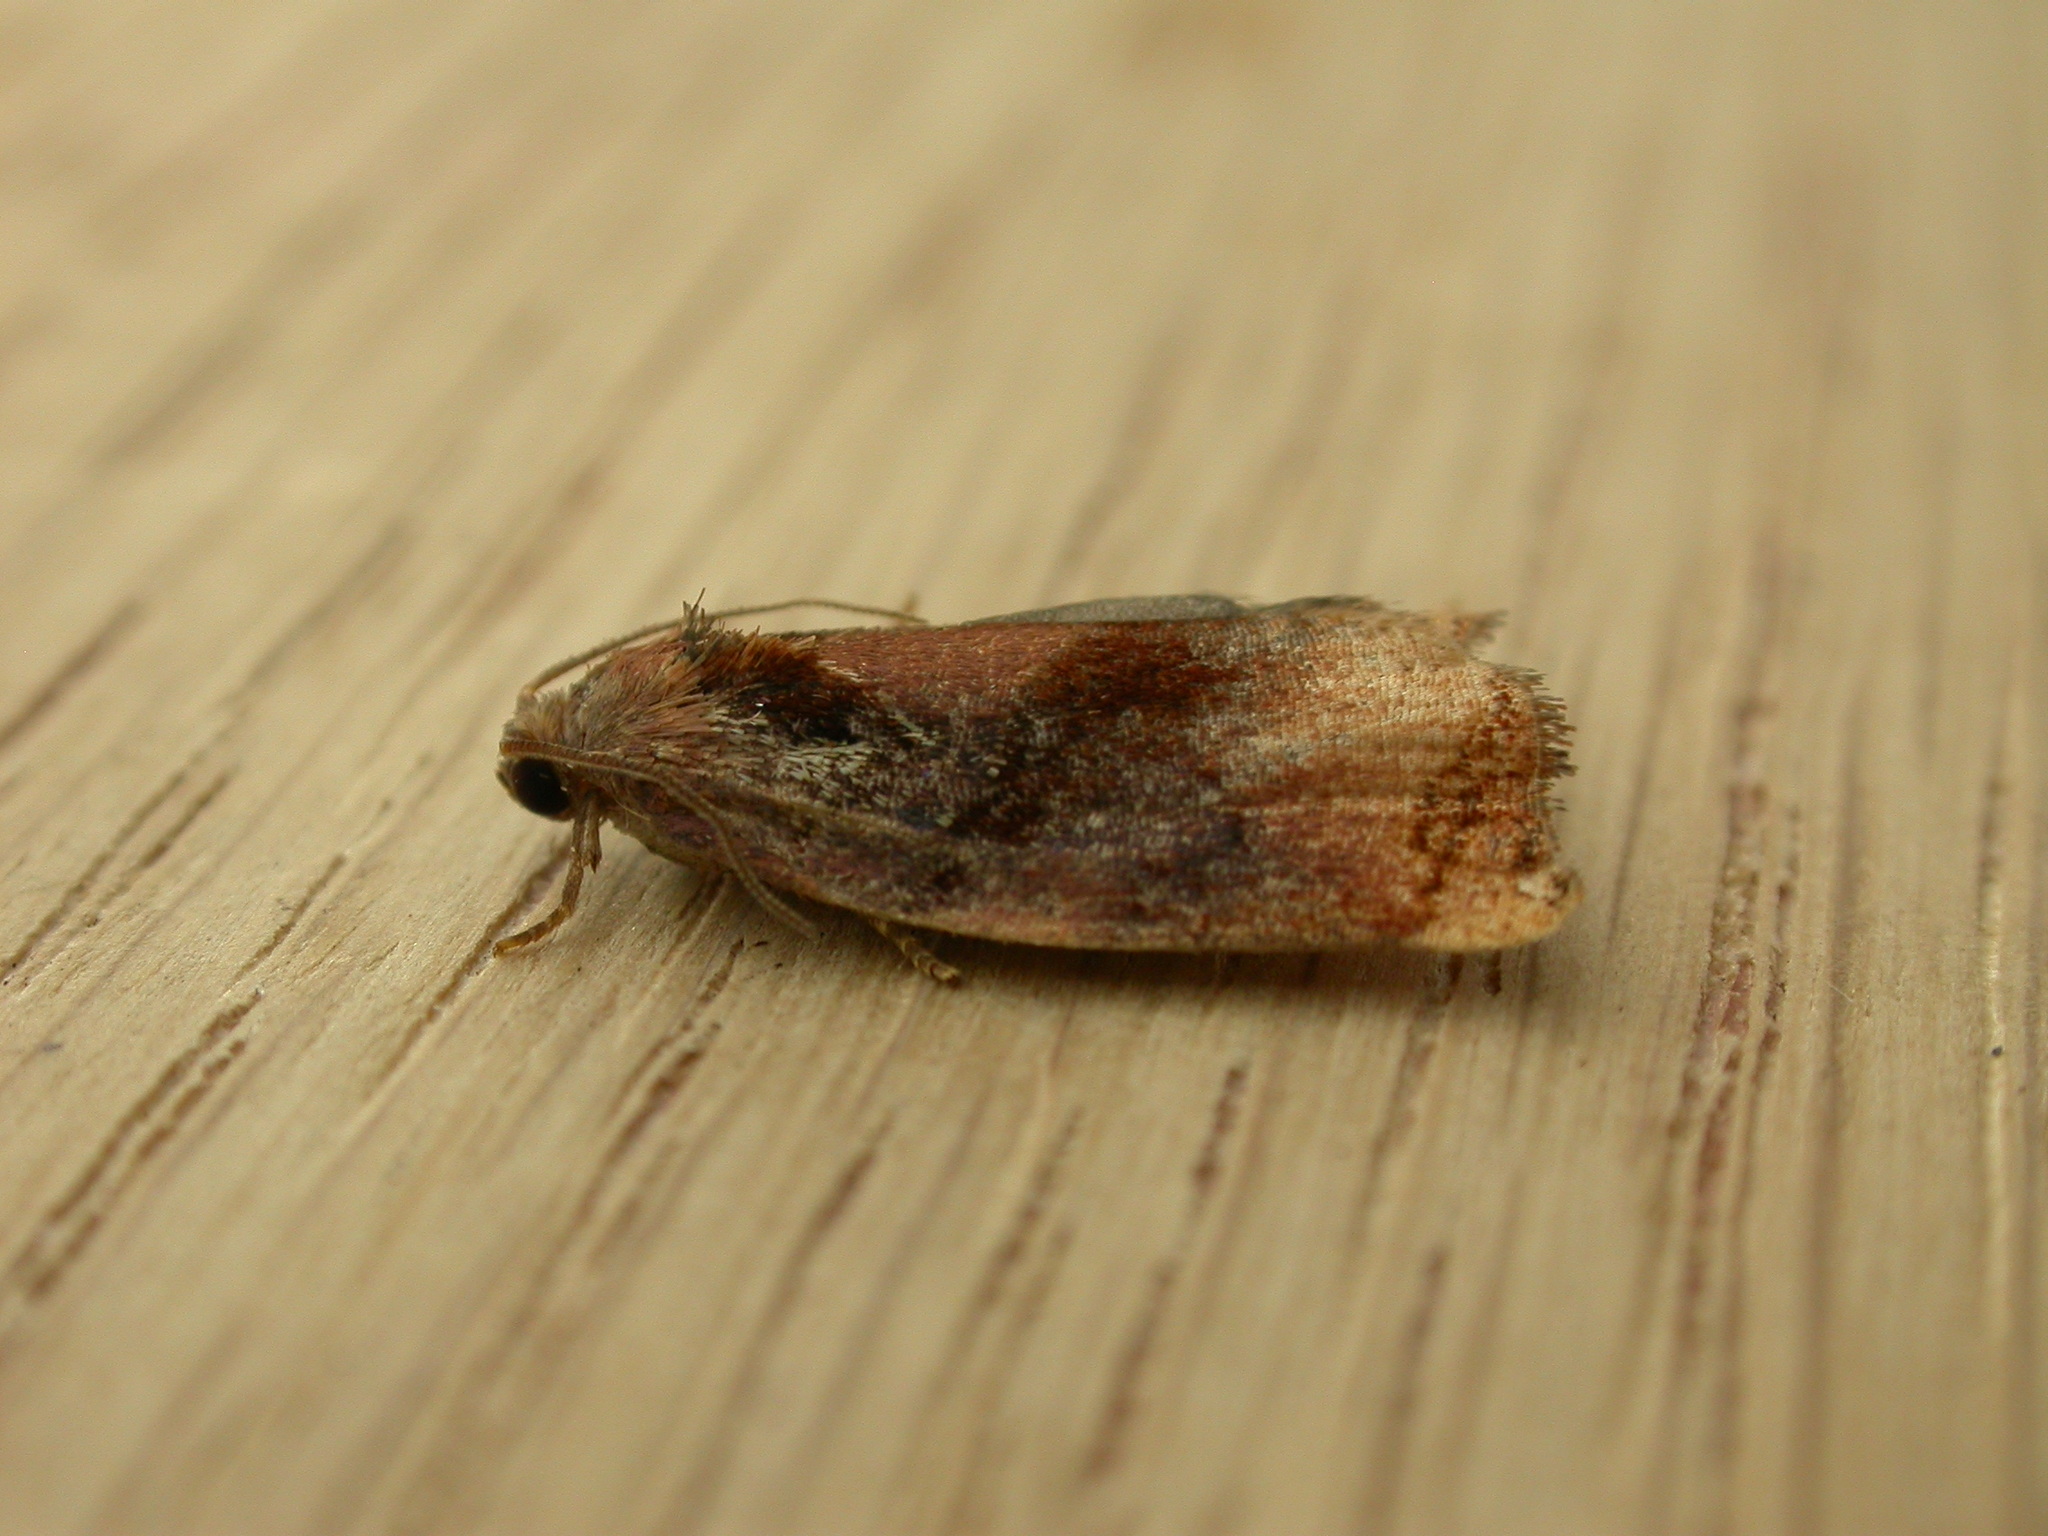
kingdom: Animalia
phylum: Arthropoda
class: Insecta
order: Lepidoptera
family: Tortricidae
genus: Archips
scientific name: Archips podana
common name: Large fruit-tree tortrix
